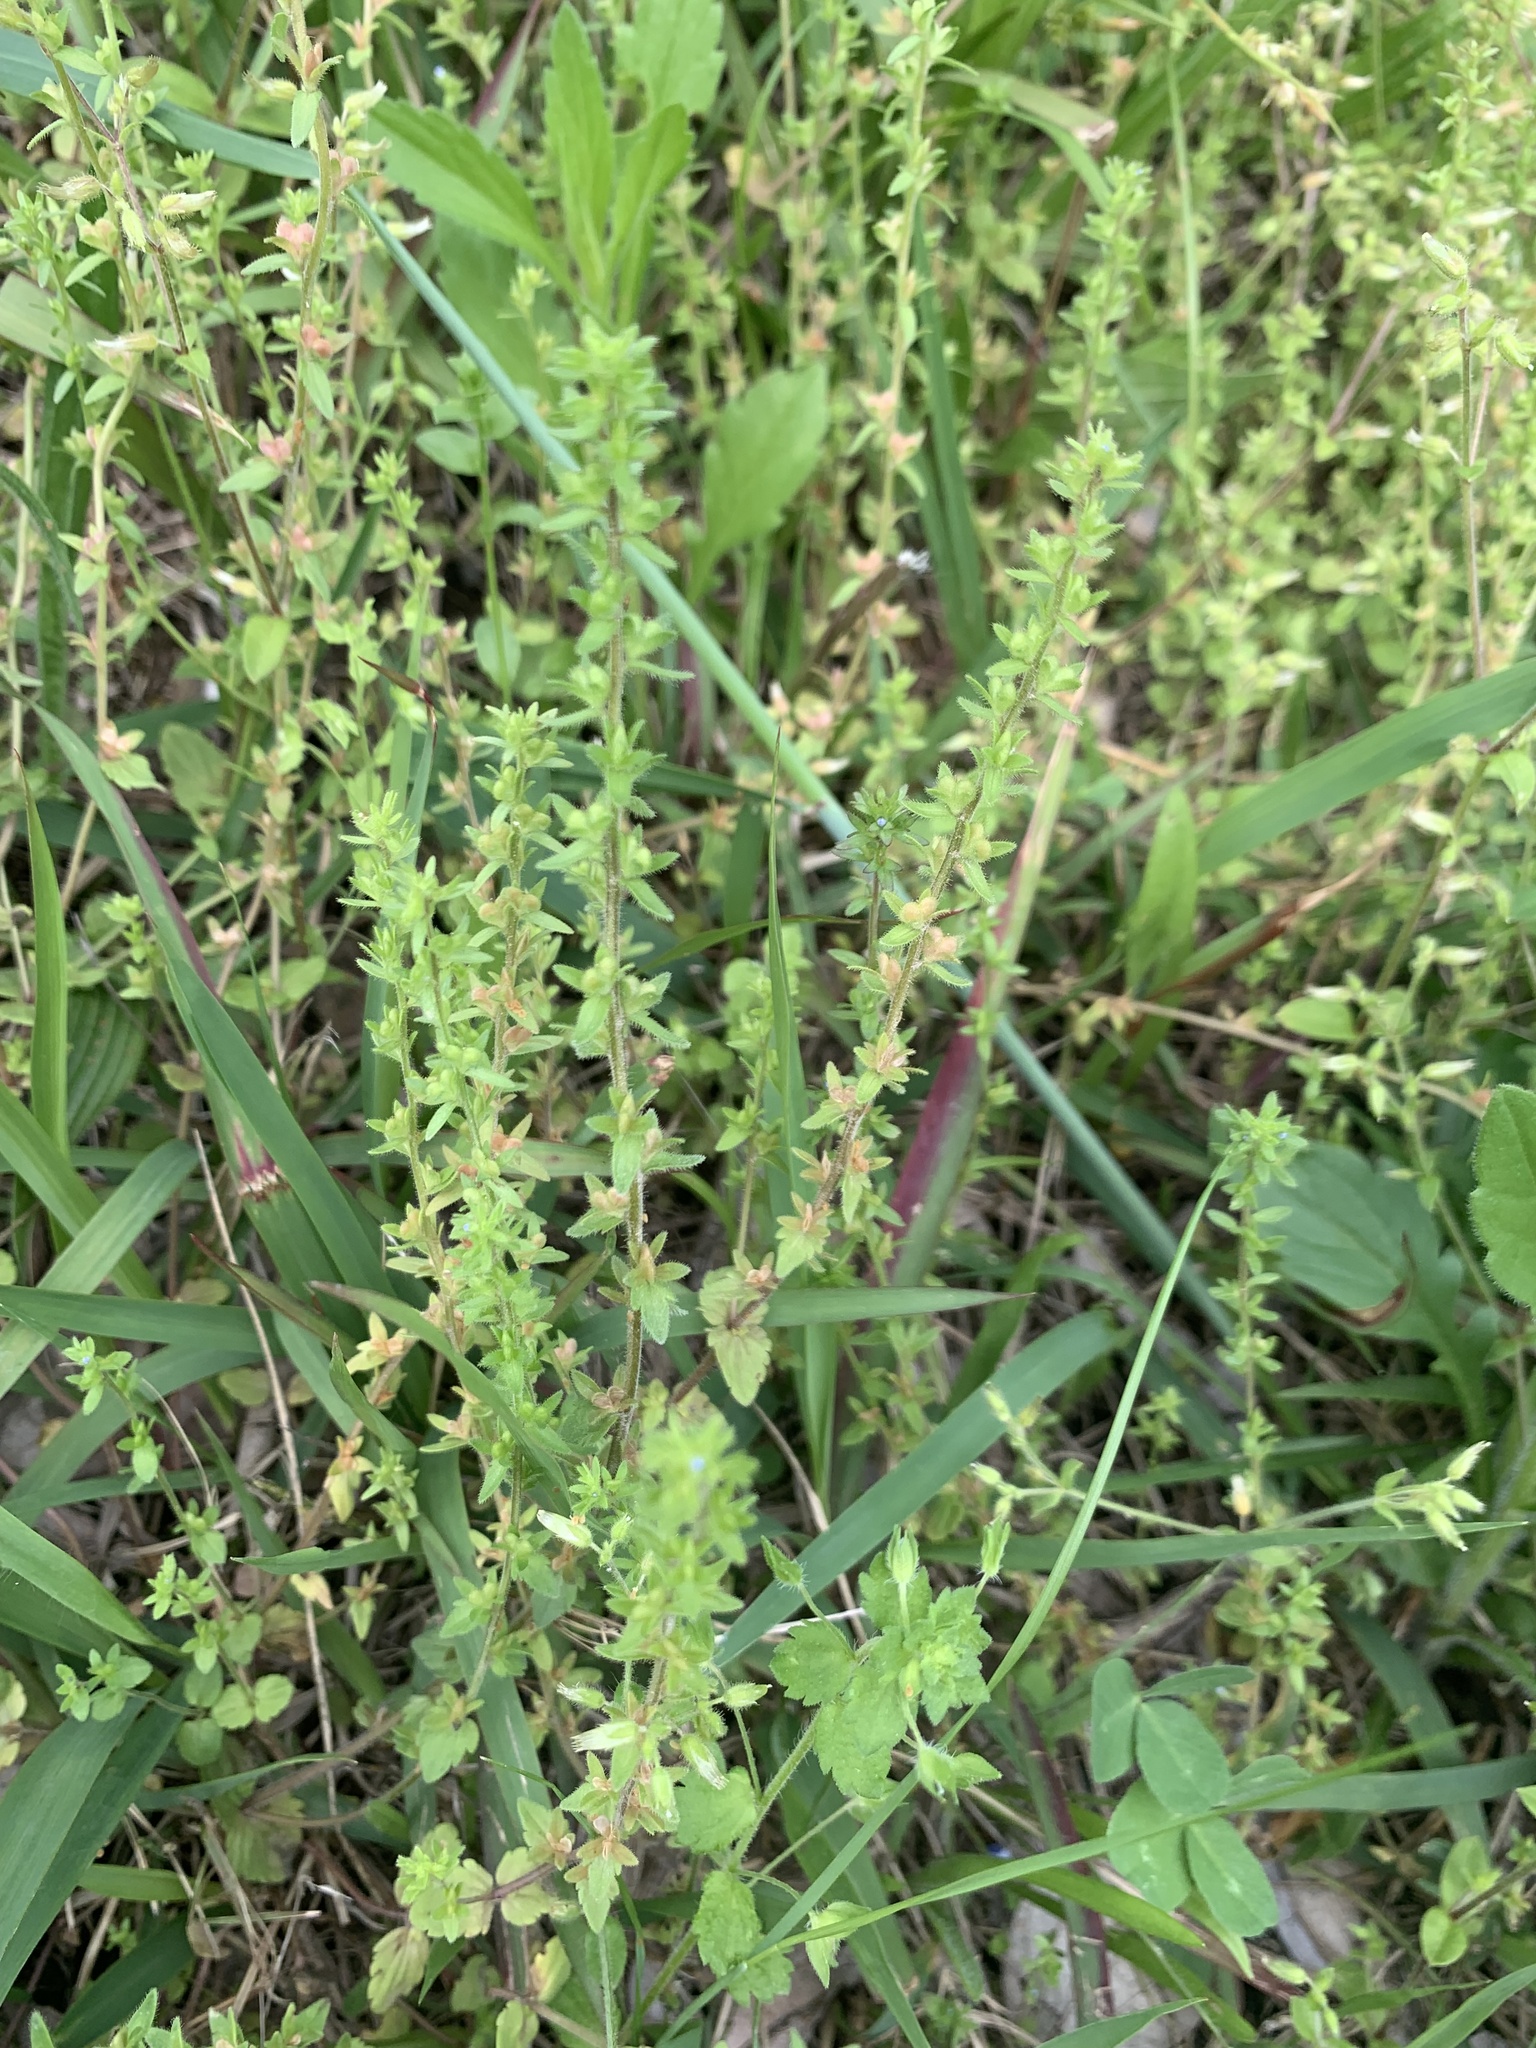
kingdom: Plantae
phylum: Tracheophyta
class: Magnoliopsida
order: Lamiales
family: Plantaginaceae
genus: Veronica
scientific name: Veronica arvensis
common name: Corn speedwell
